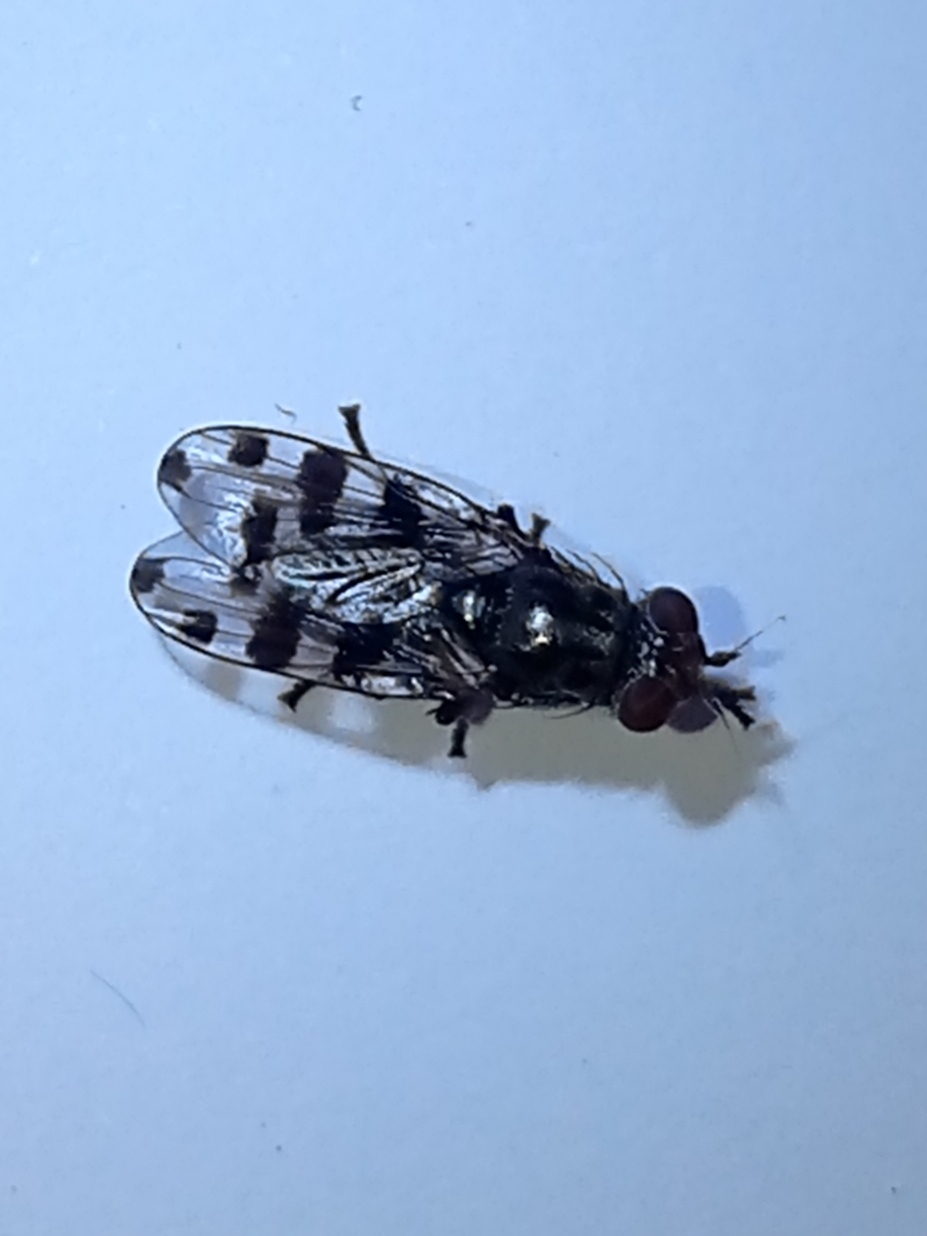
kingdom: Animalia
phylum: Arthropoda
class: Insecta
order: Diptera
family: Ulidiidae
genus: Ceroxys
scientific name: Ceroxys
